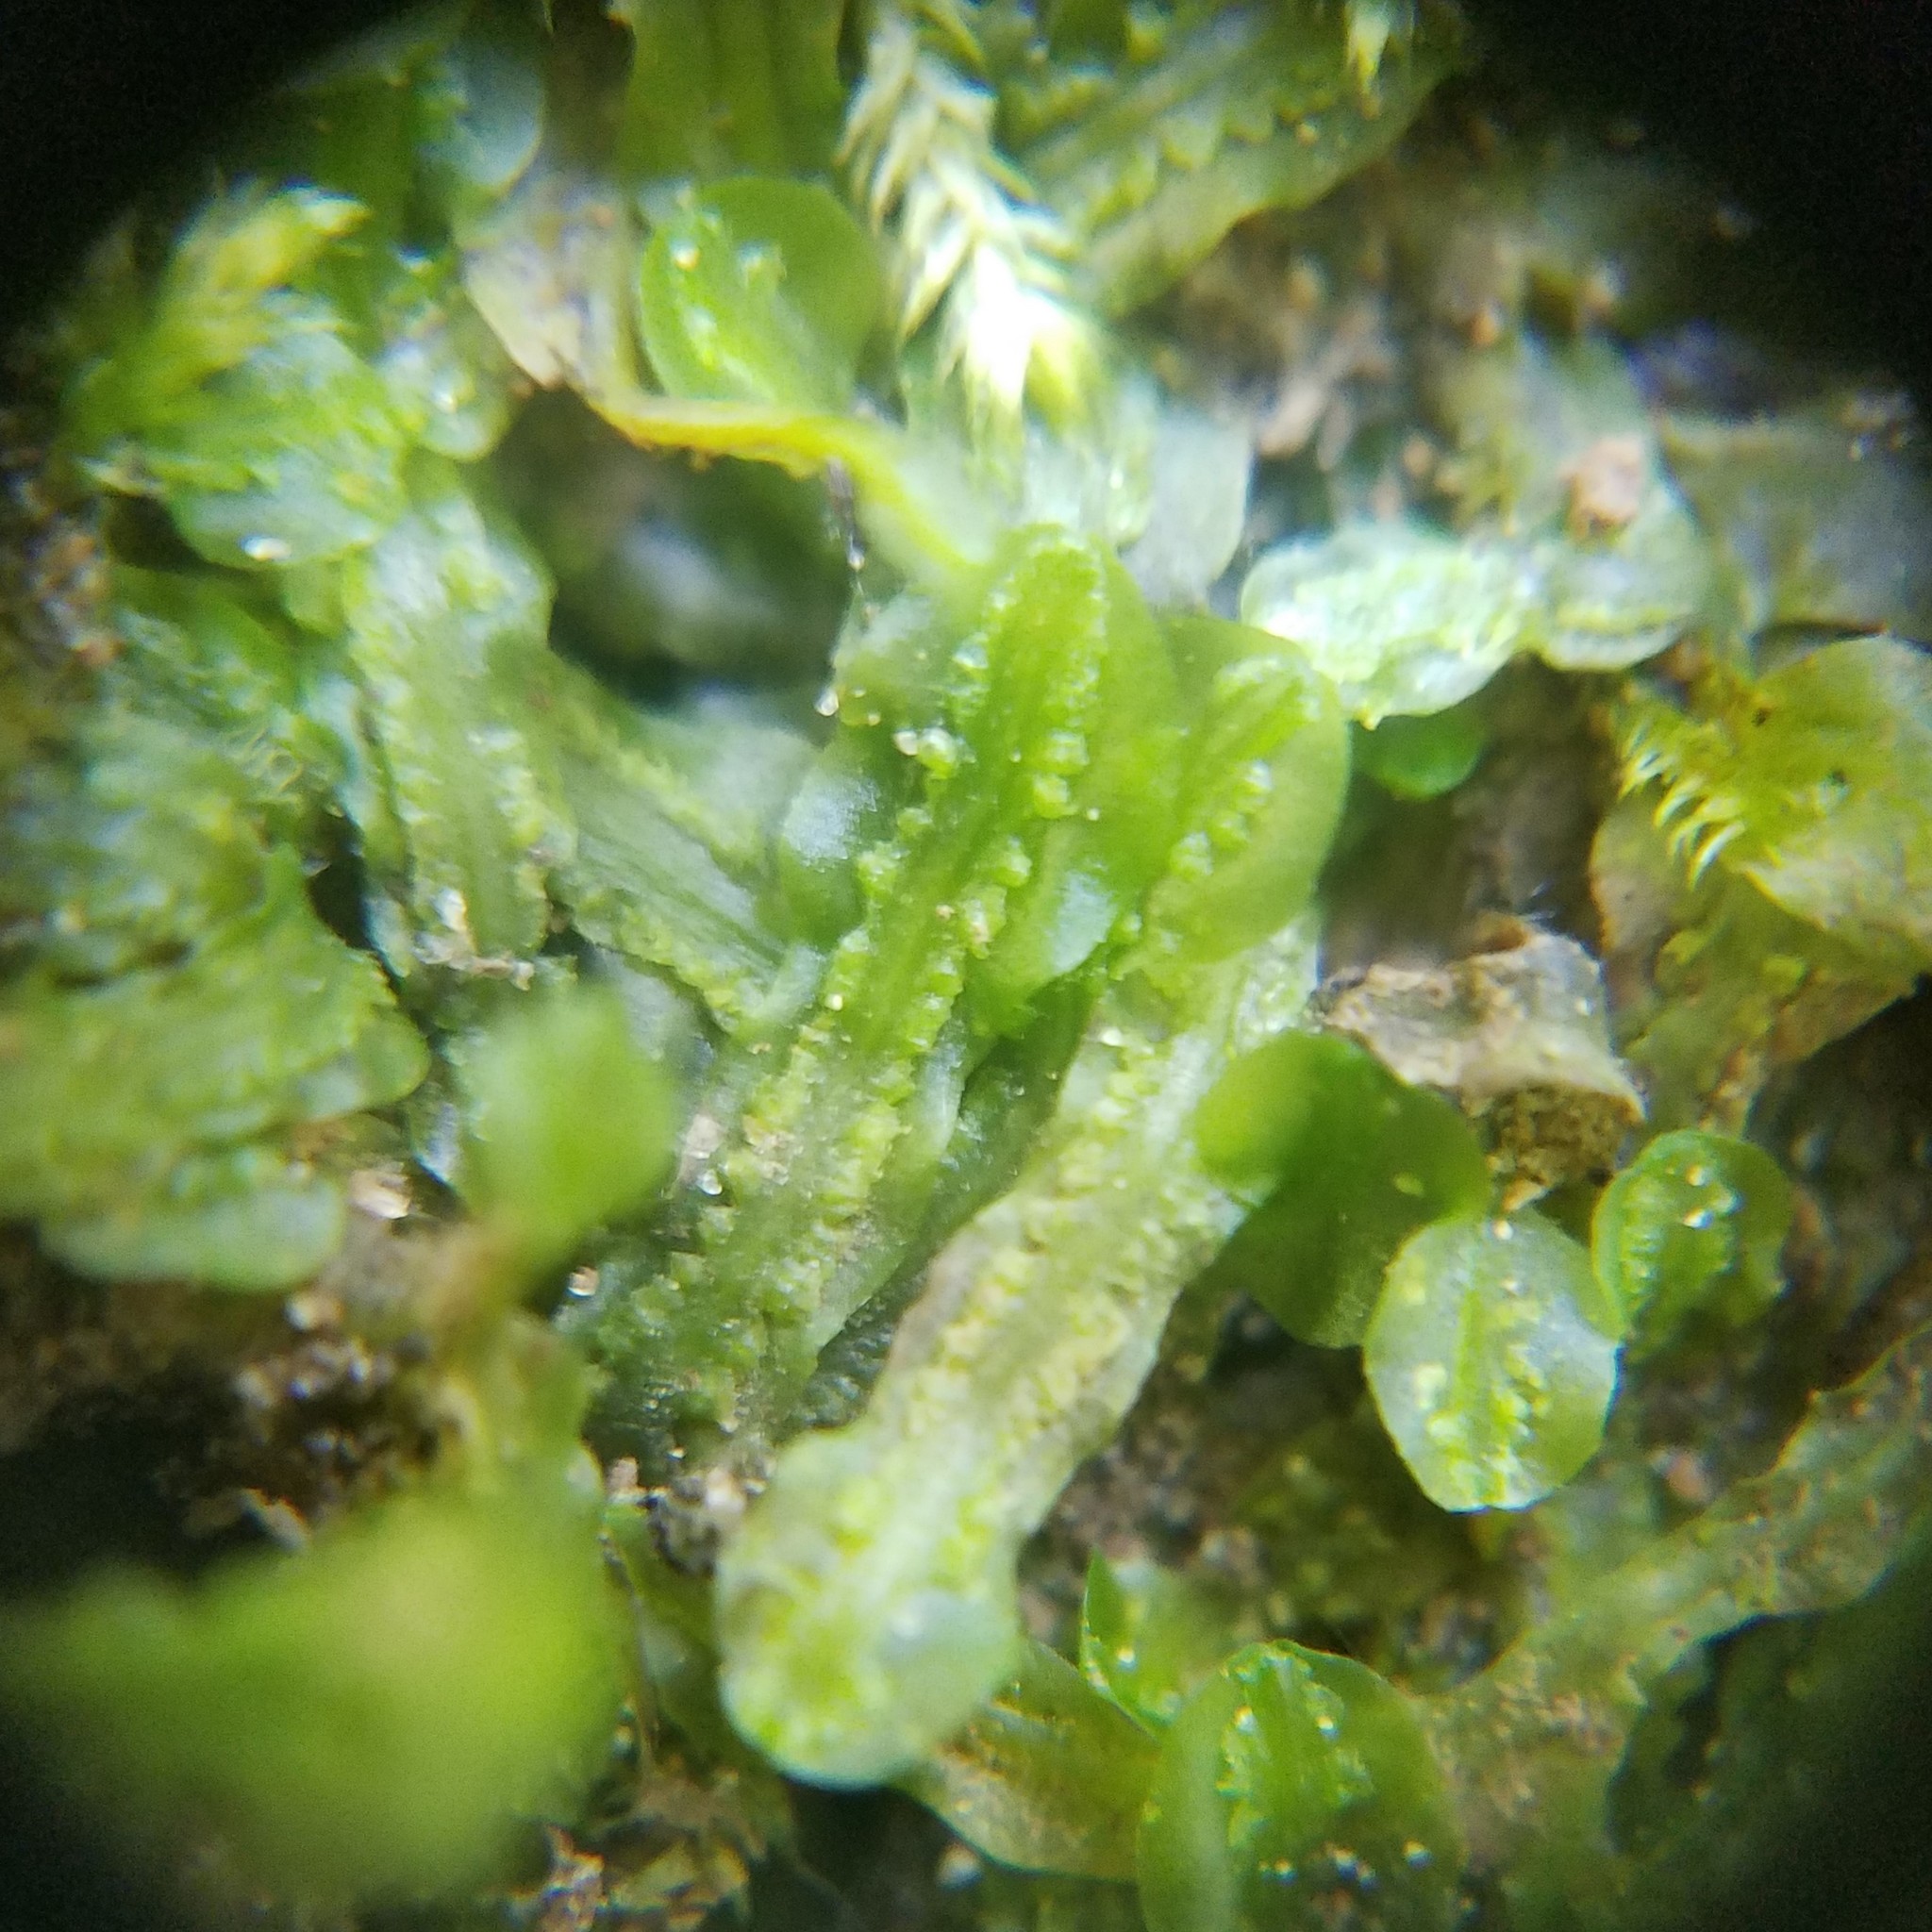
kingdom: Plantae
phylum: Marchantiophyta
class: Jungermanniopsida
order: Pallaviciniales
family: Pallaviciniaceae
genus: Pallavicinia
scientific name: Pallavicinia lyellii
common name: Veilwort
